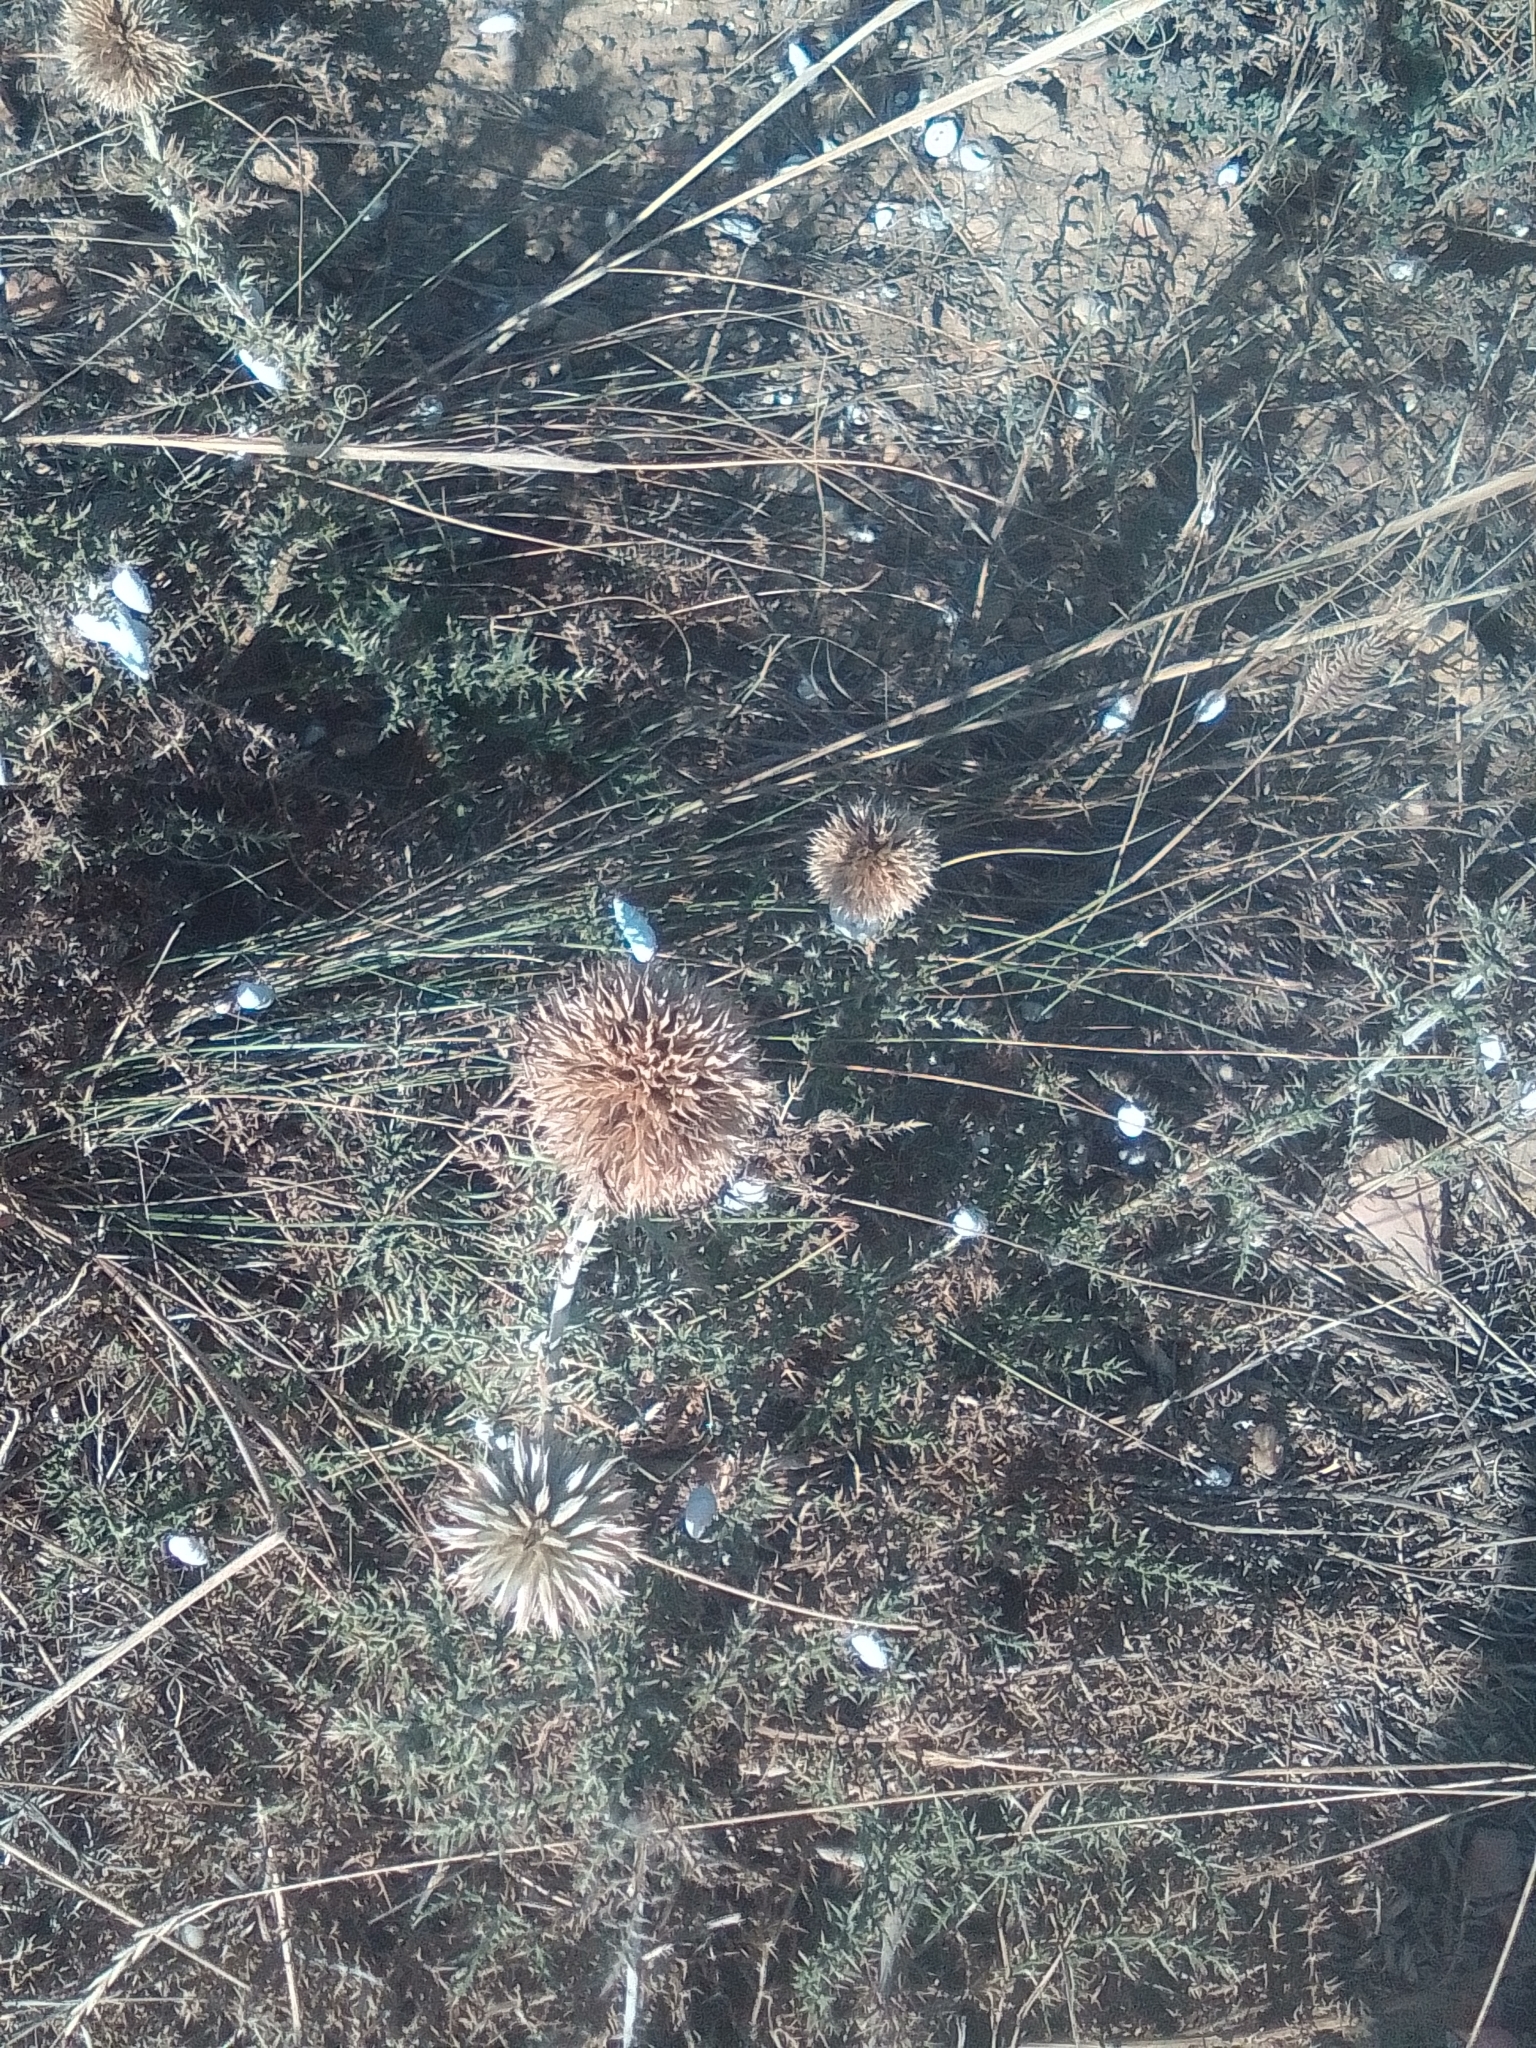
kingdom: Plantae
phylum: Tracheophyta
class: Magnoliopsida
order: Asterales
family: Asteraceae
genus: Echinops
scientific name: Echinops ritro
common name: Globe thistle
